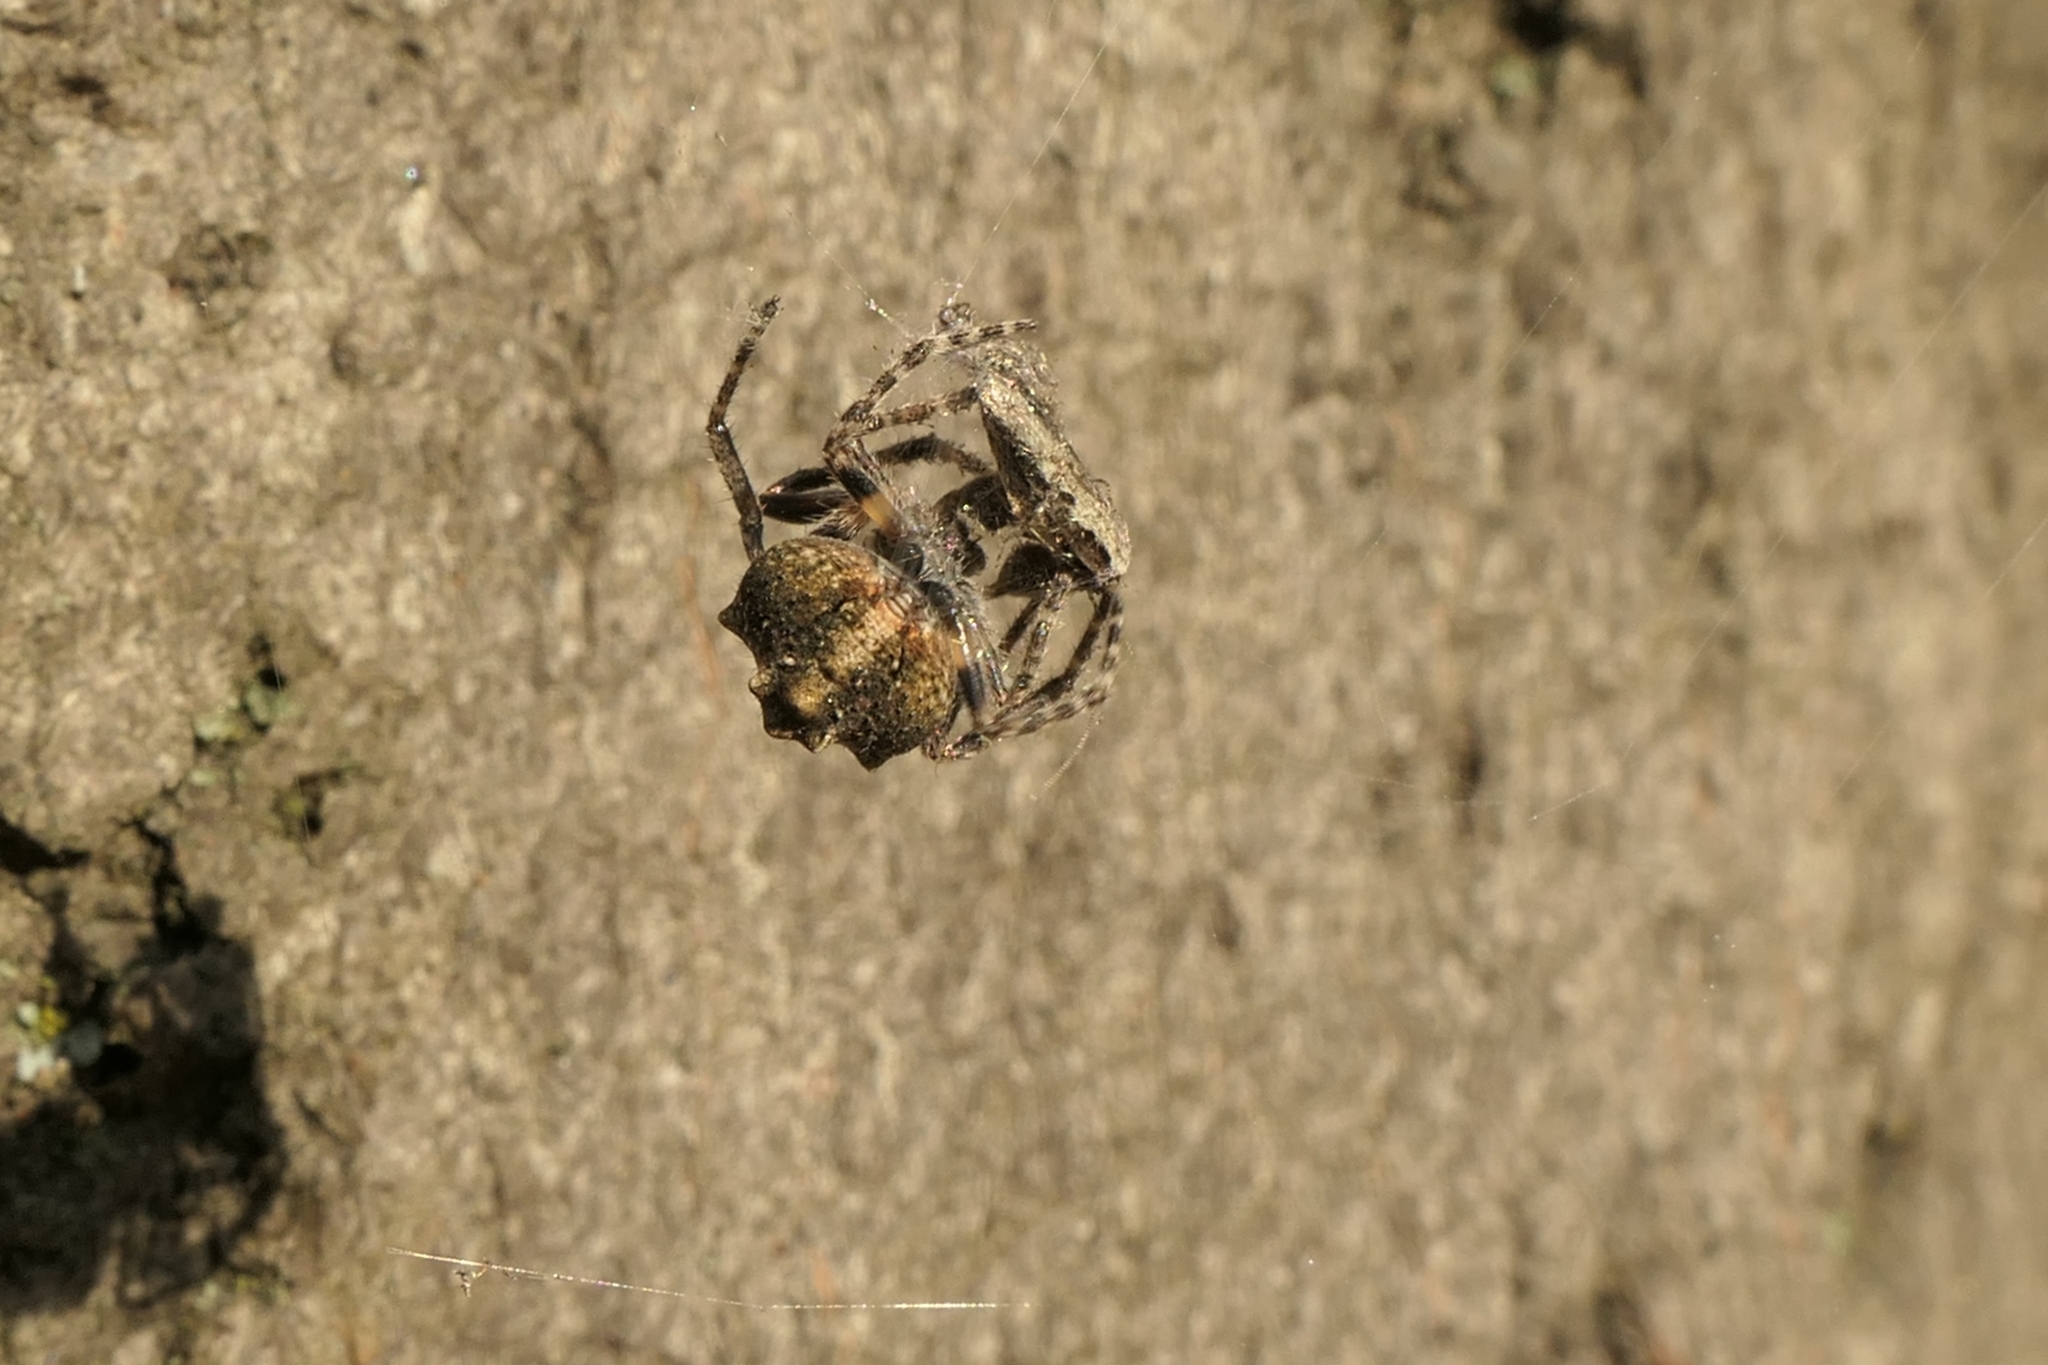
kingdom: Animalia
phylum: Arthropoda
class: Insecta
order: Lepidoptera
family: Tineidae
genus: Erechthias
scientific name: Erechthias fulguritella
